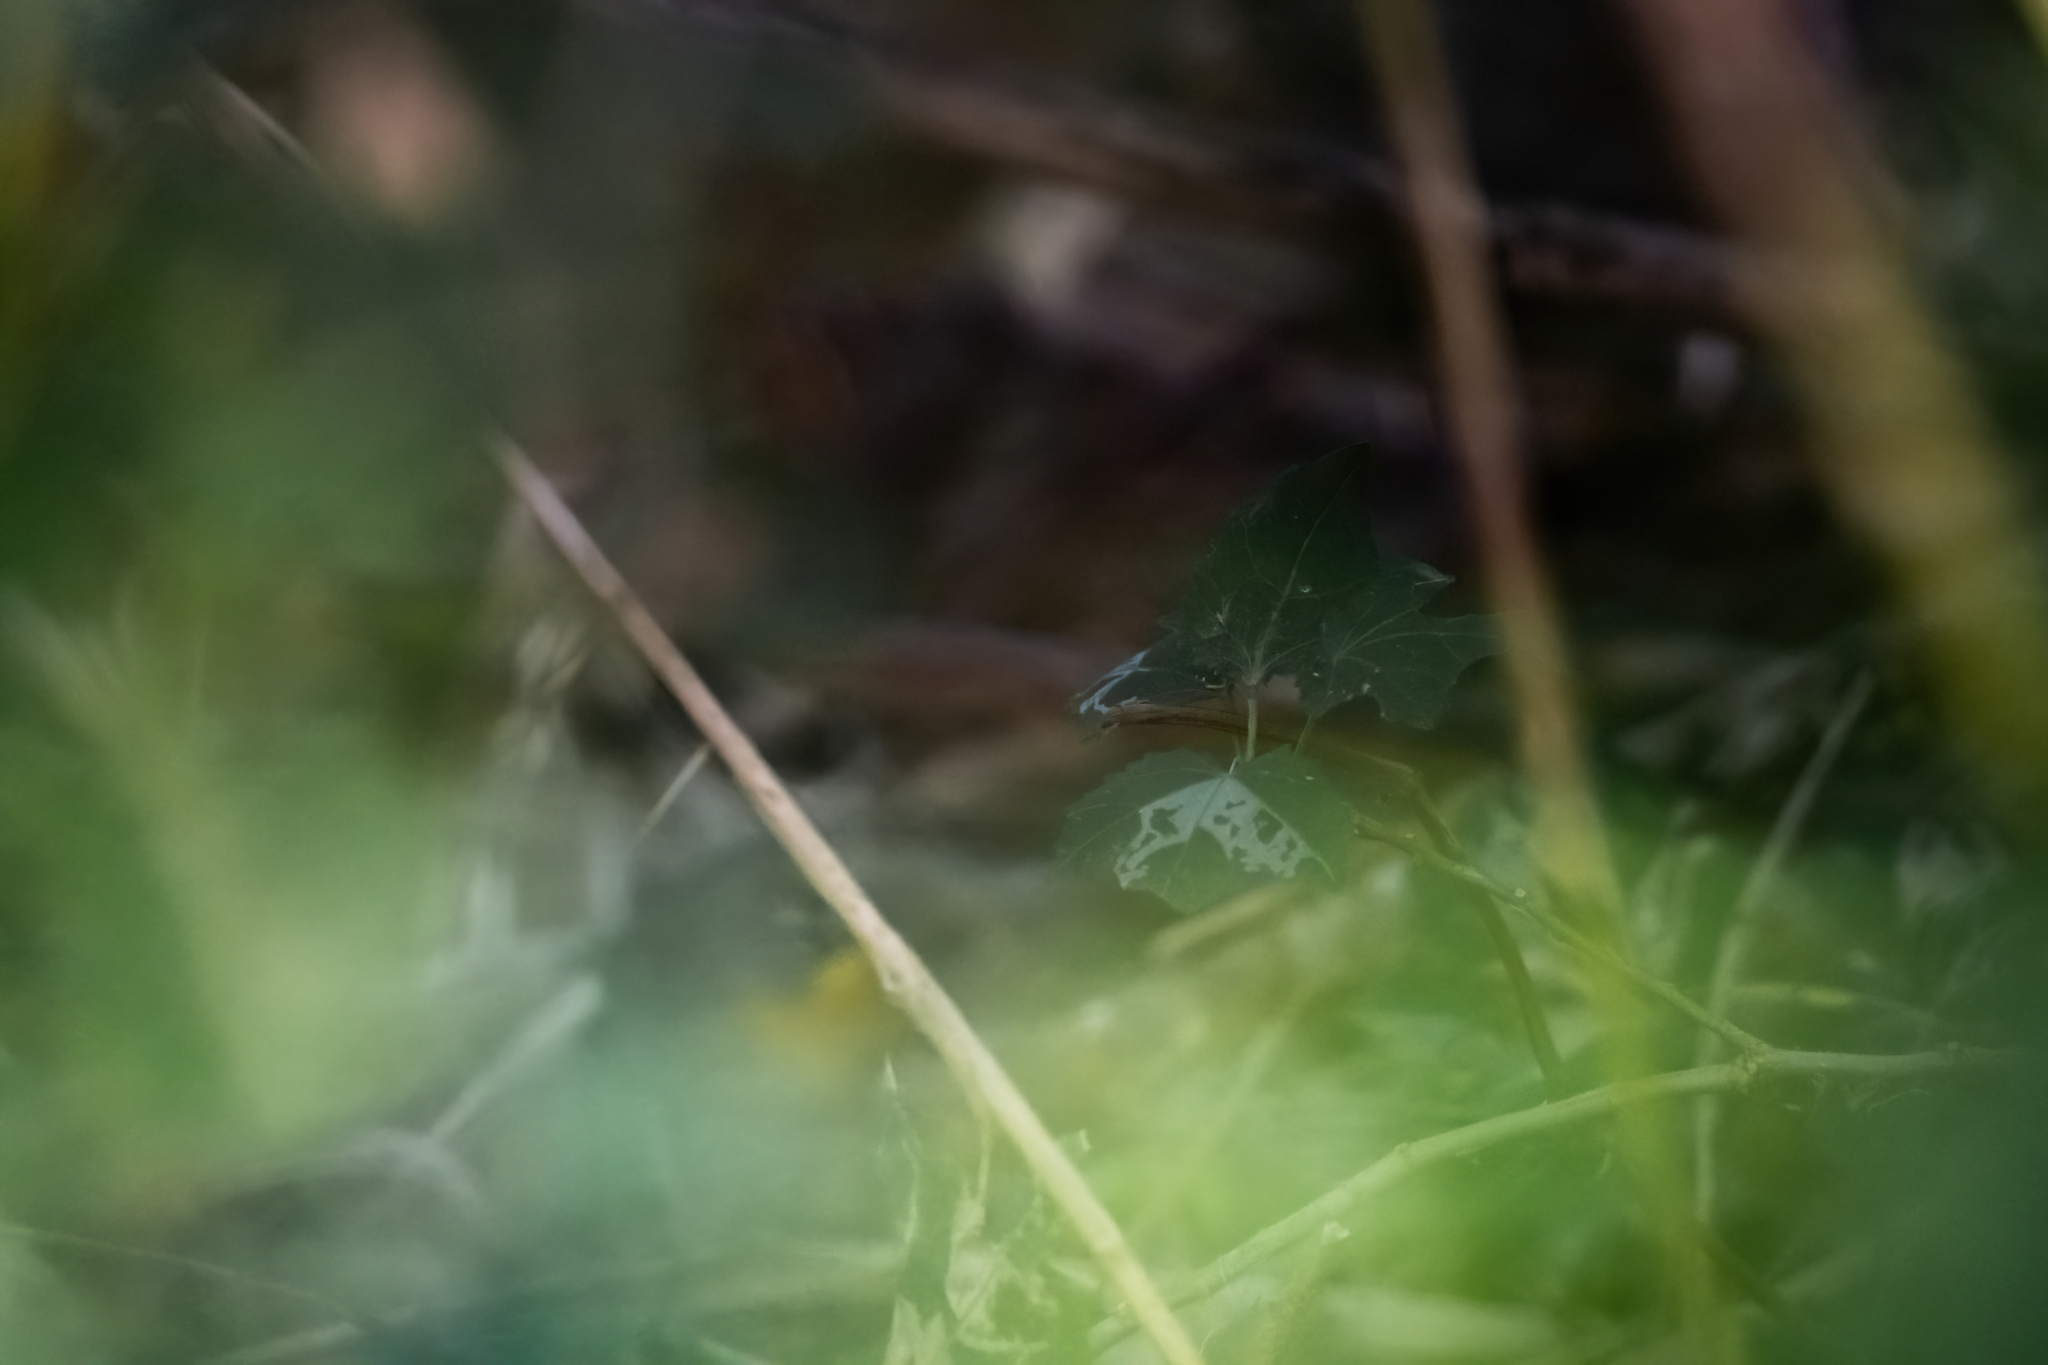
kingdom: Animalia
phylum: Chordata
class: Aves
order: Passeriformes
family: Parulidae
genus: Basileuterus
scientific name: Basileuterus lachrymosus
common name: Fan-tailed warbler
